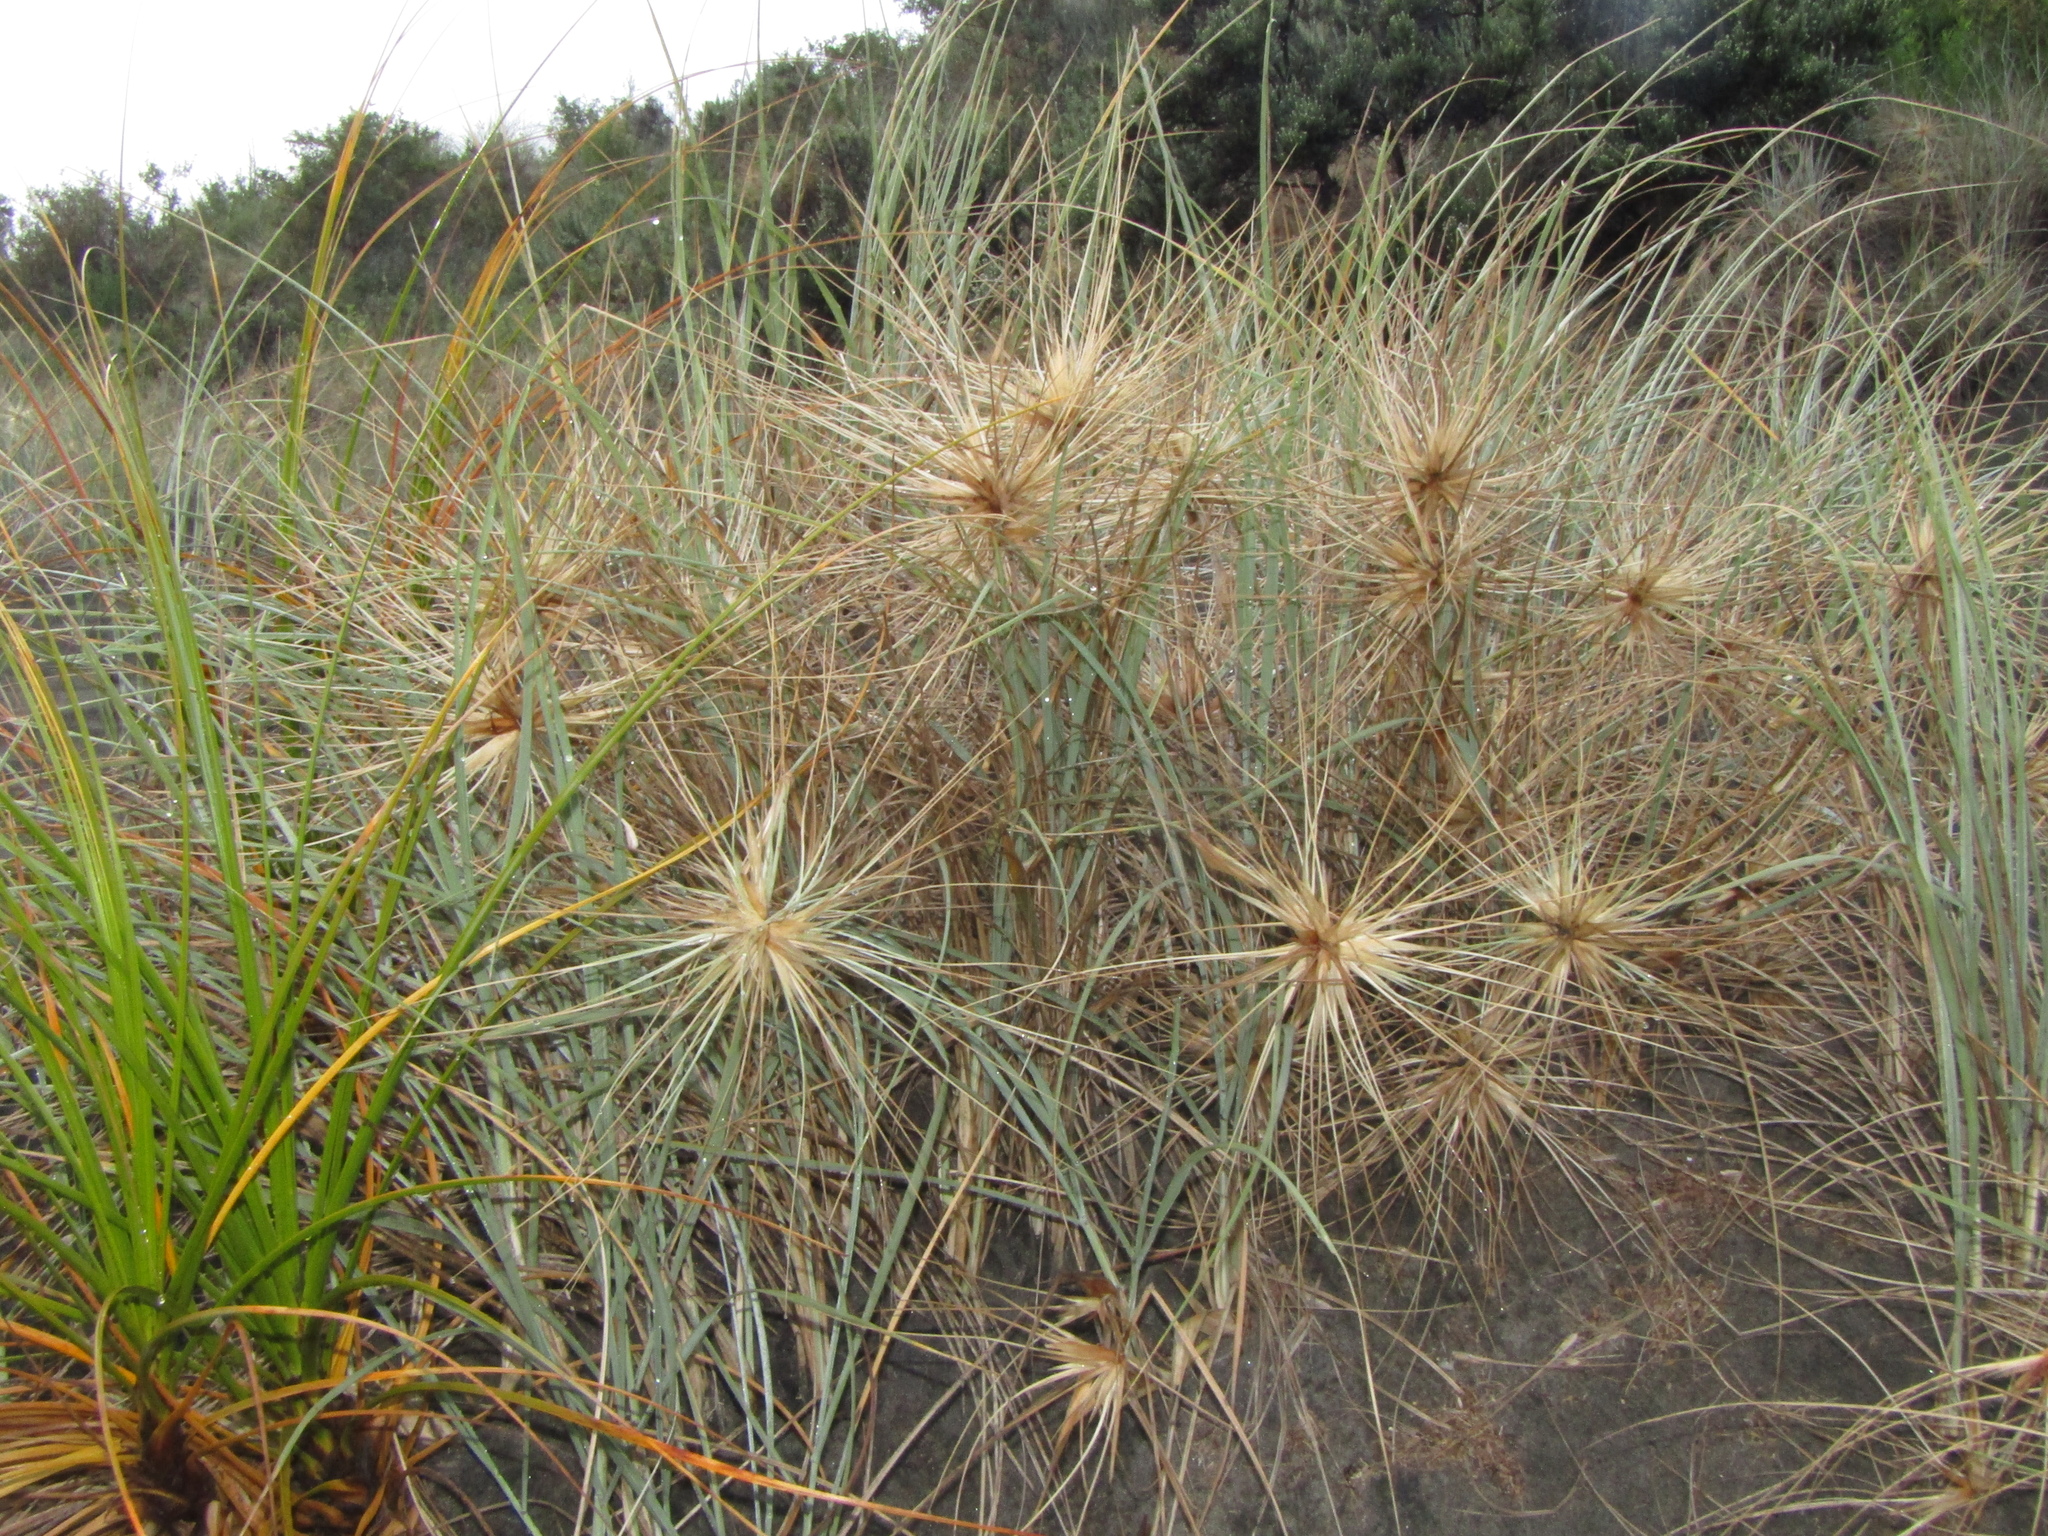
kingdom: Plantae
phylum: Tracheophyta
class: Liliopsida
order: Poales
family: Poaceae
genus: Spinifex
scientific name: Spinifex sericeus
